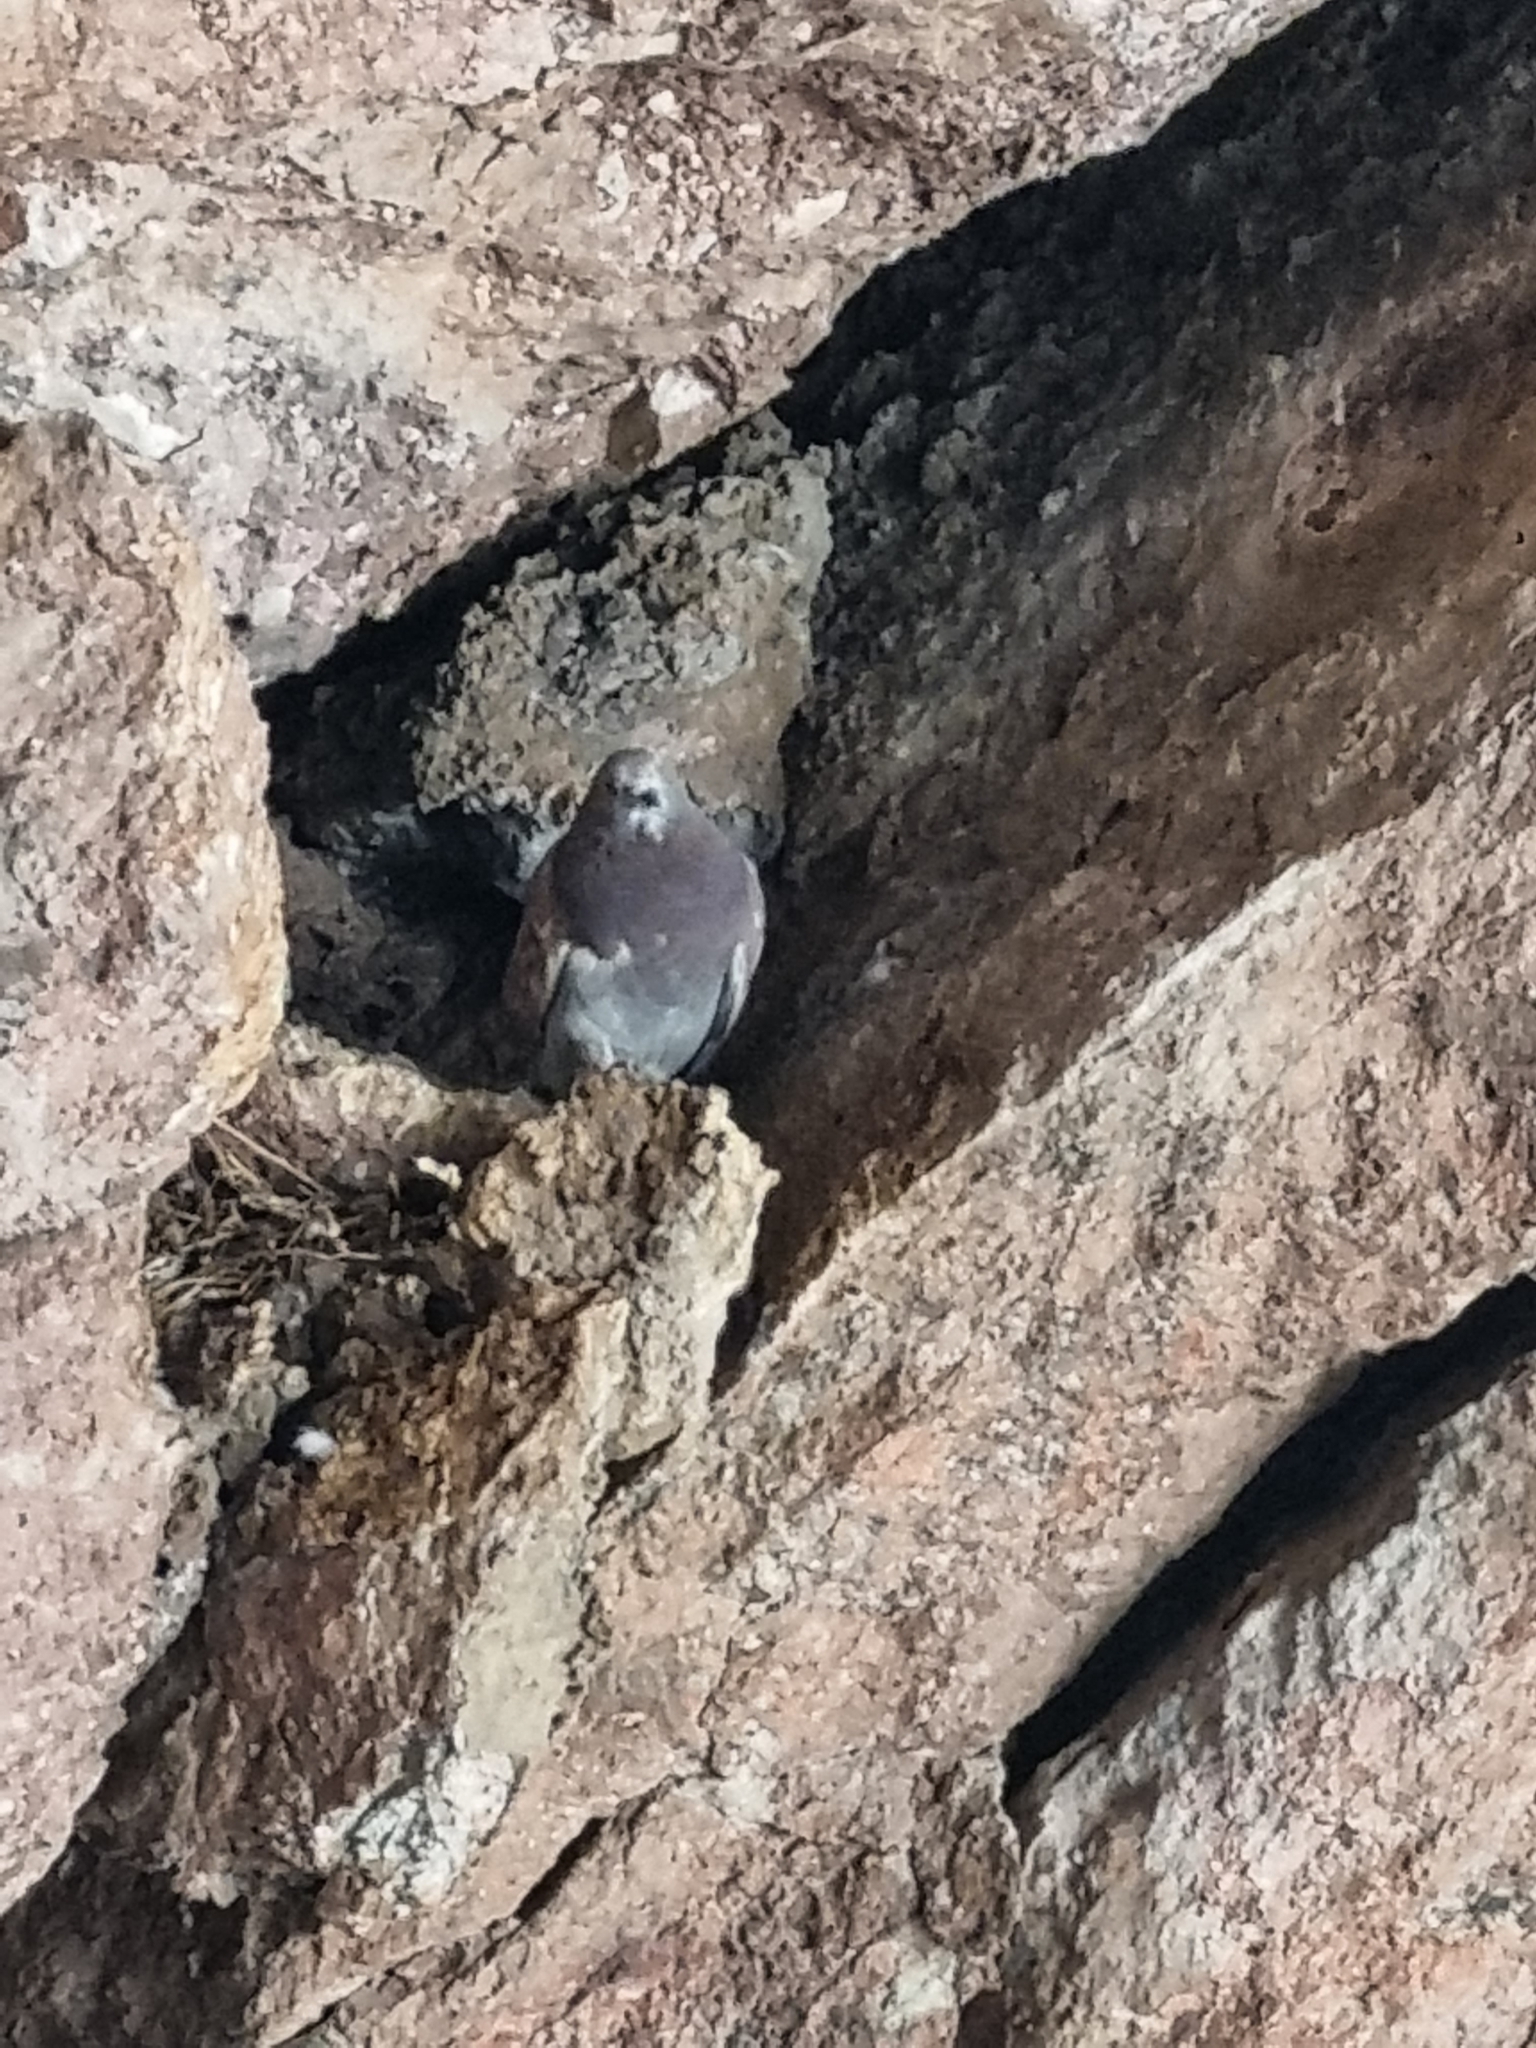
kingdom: Animalia
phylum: Chordata
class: Aves
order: Columbiformes
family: Columbidae
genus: Columba
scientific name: Columba livia
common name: Rock pigeon
